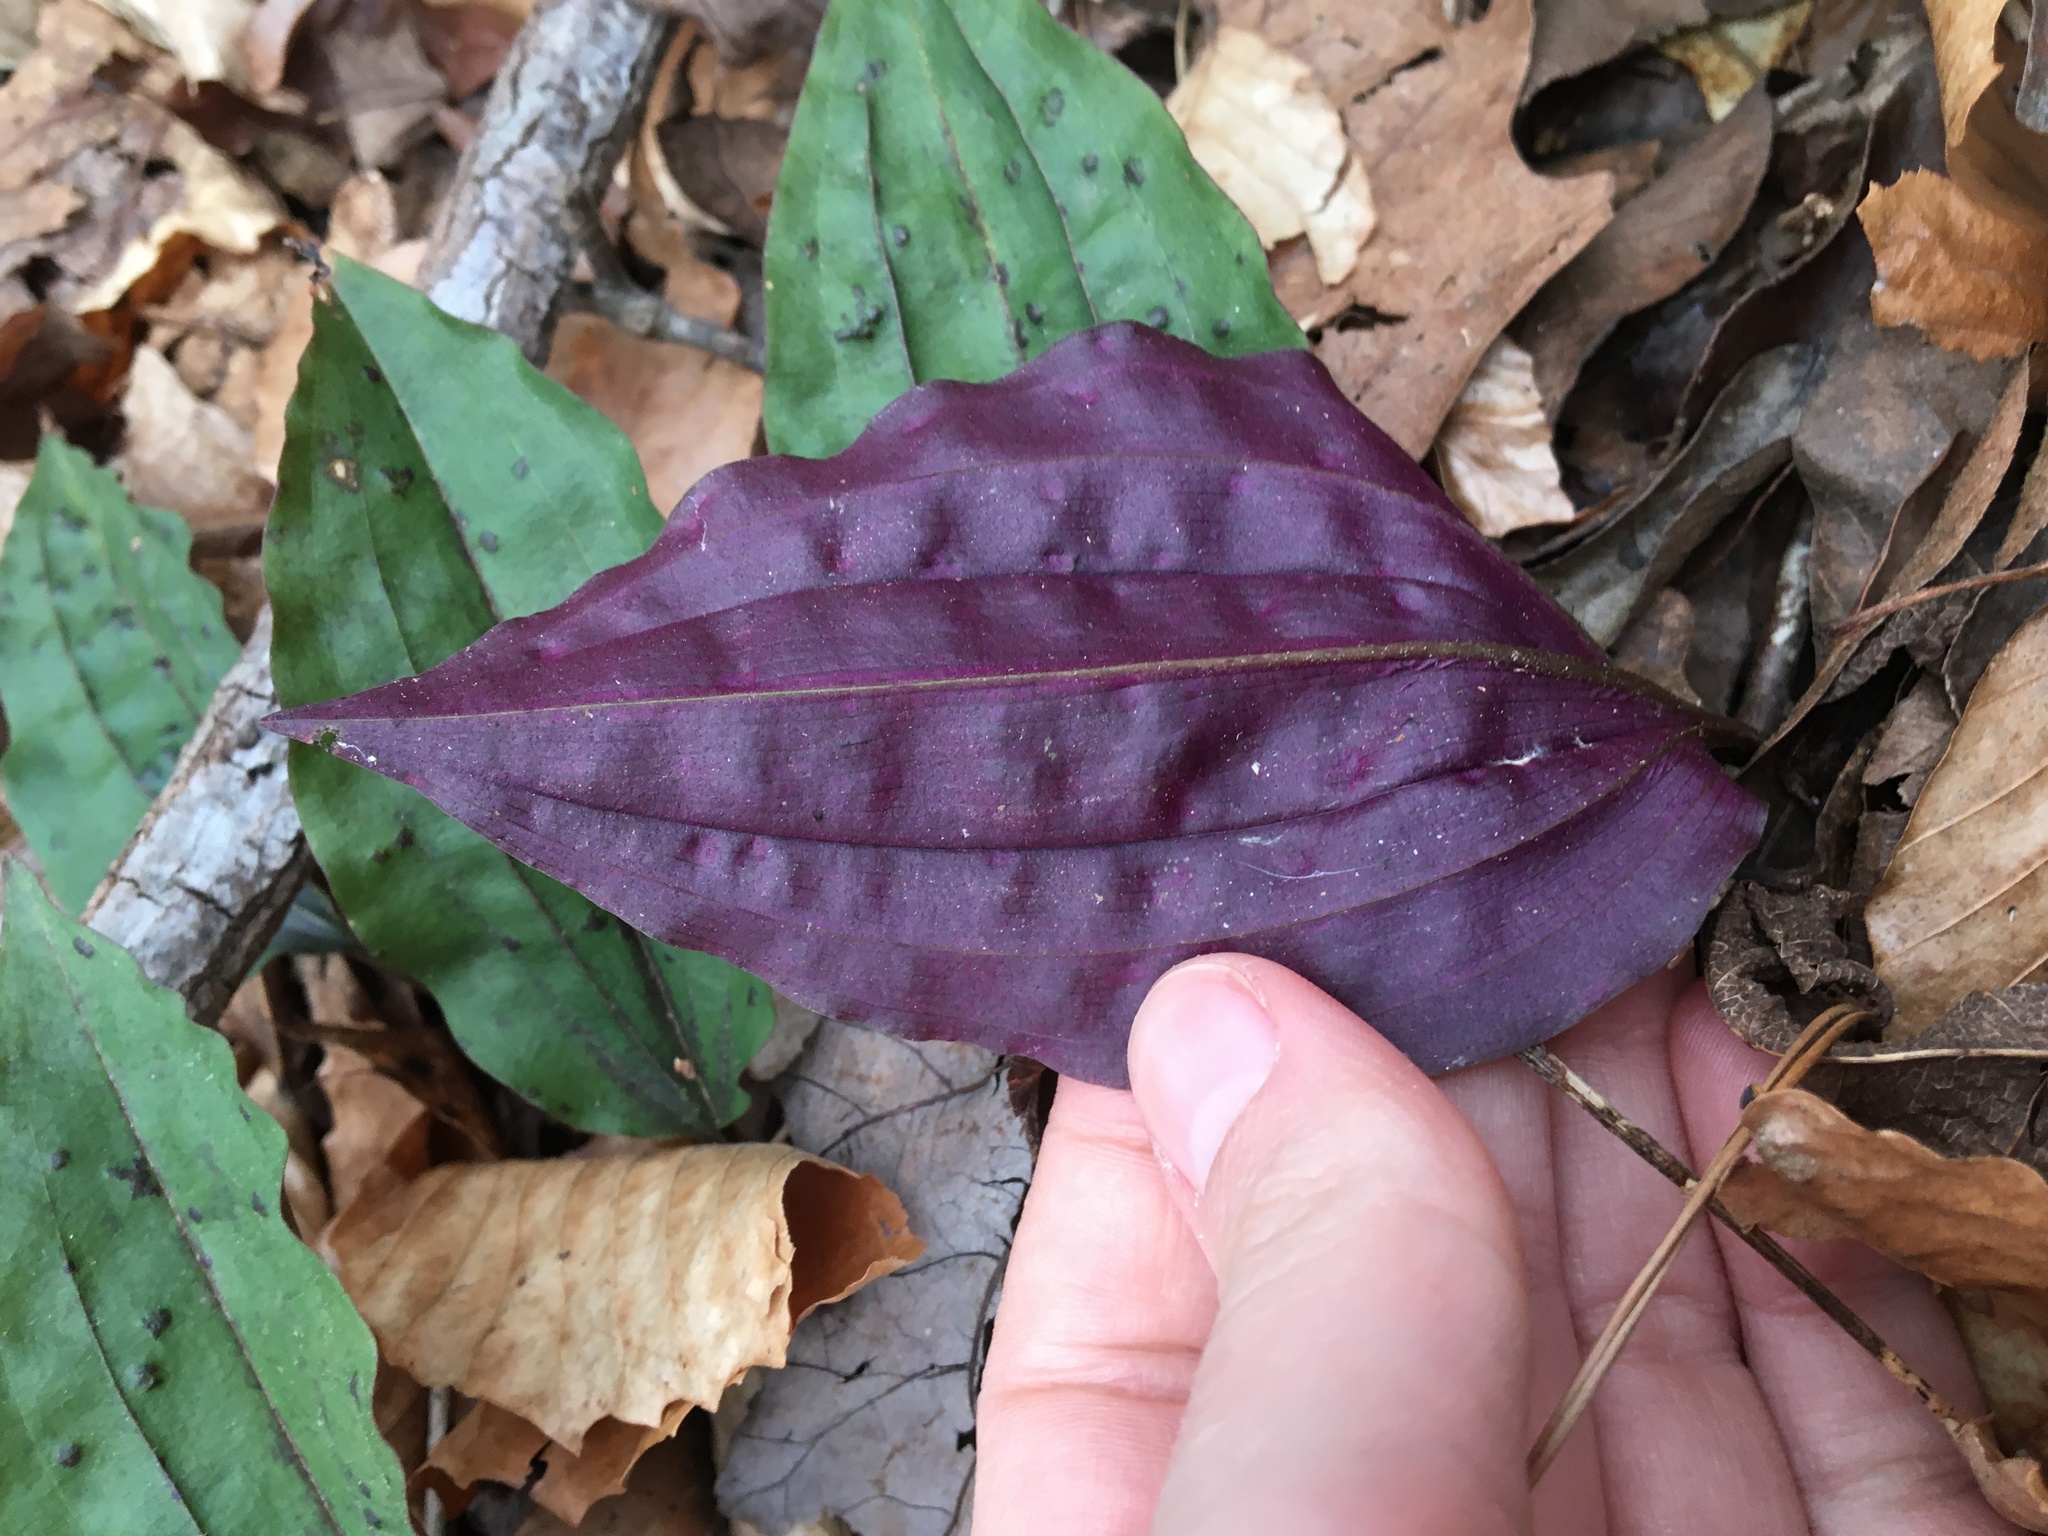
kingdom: Plantae
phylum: Tracheophyta
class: Liliopsida
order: Asparagales
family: Orchidaceae
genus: Tipularia
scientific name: Tipularia discolor
